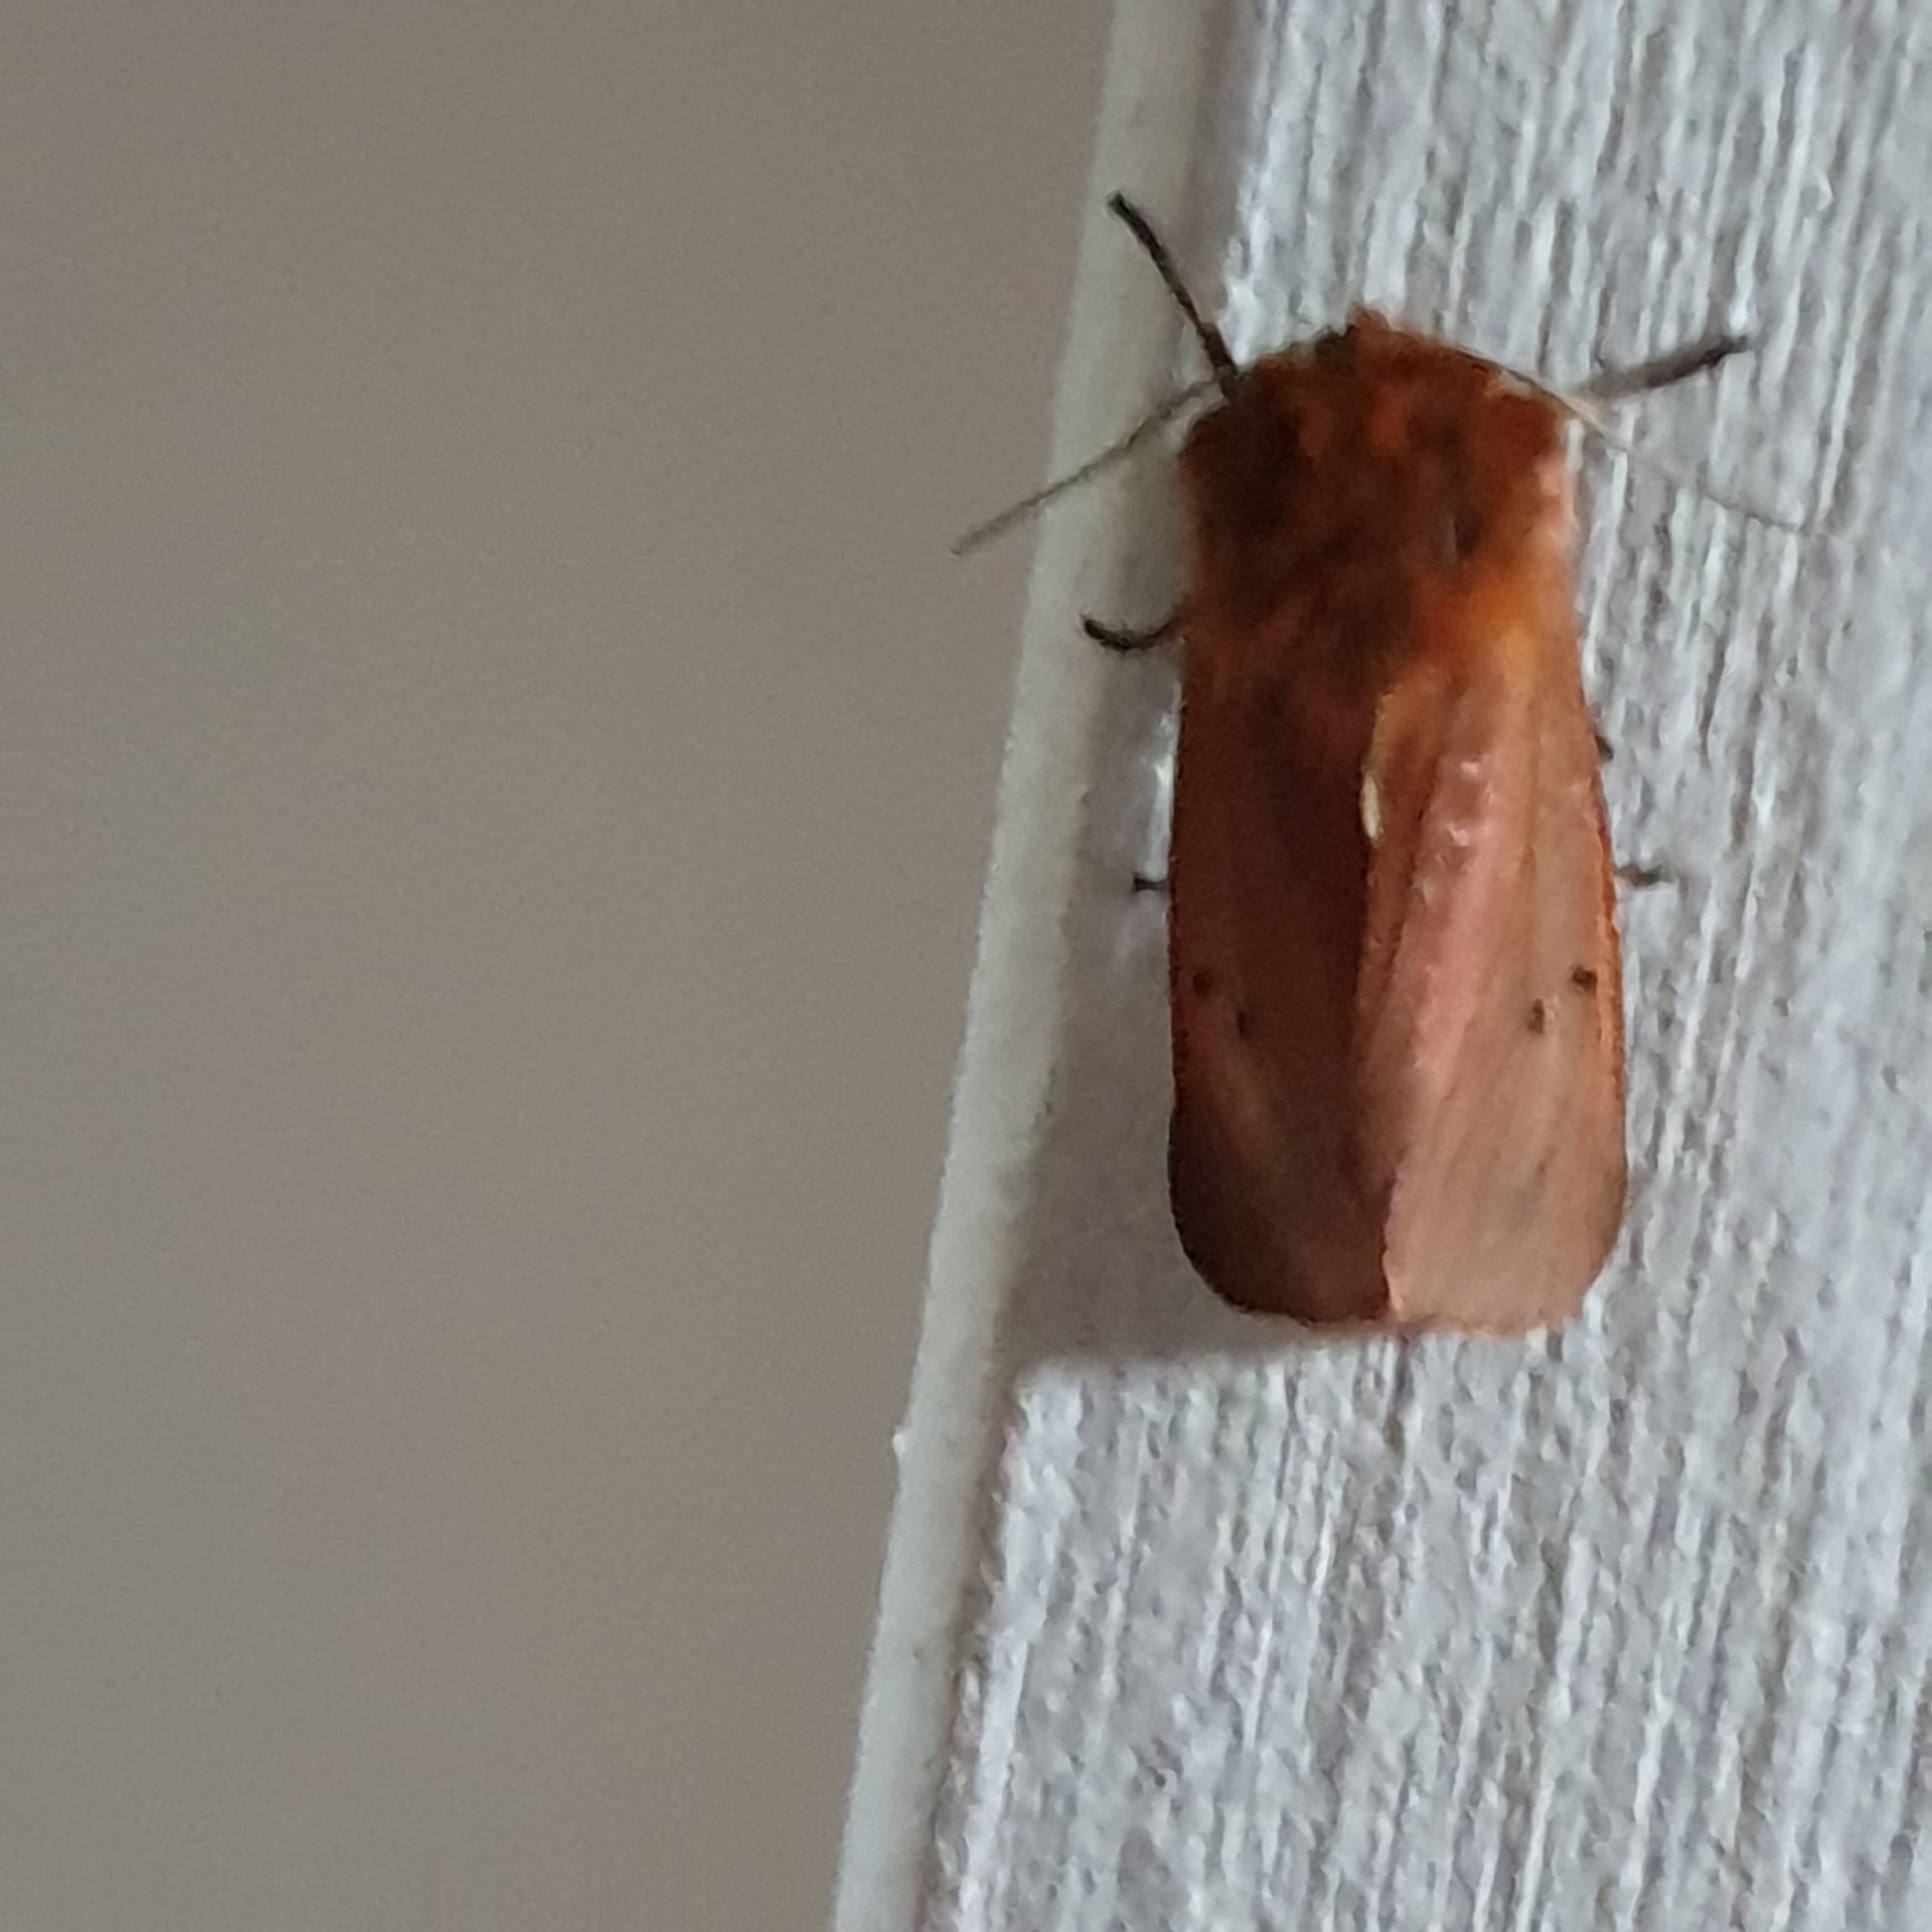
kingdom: Animalia
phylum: Arthropoda
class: Insecta
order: Lepidoptera
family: Erebidae
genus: Phragmatobia
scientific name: Phragmatobia fuliginosa
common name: Ruby tiger
